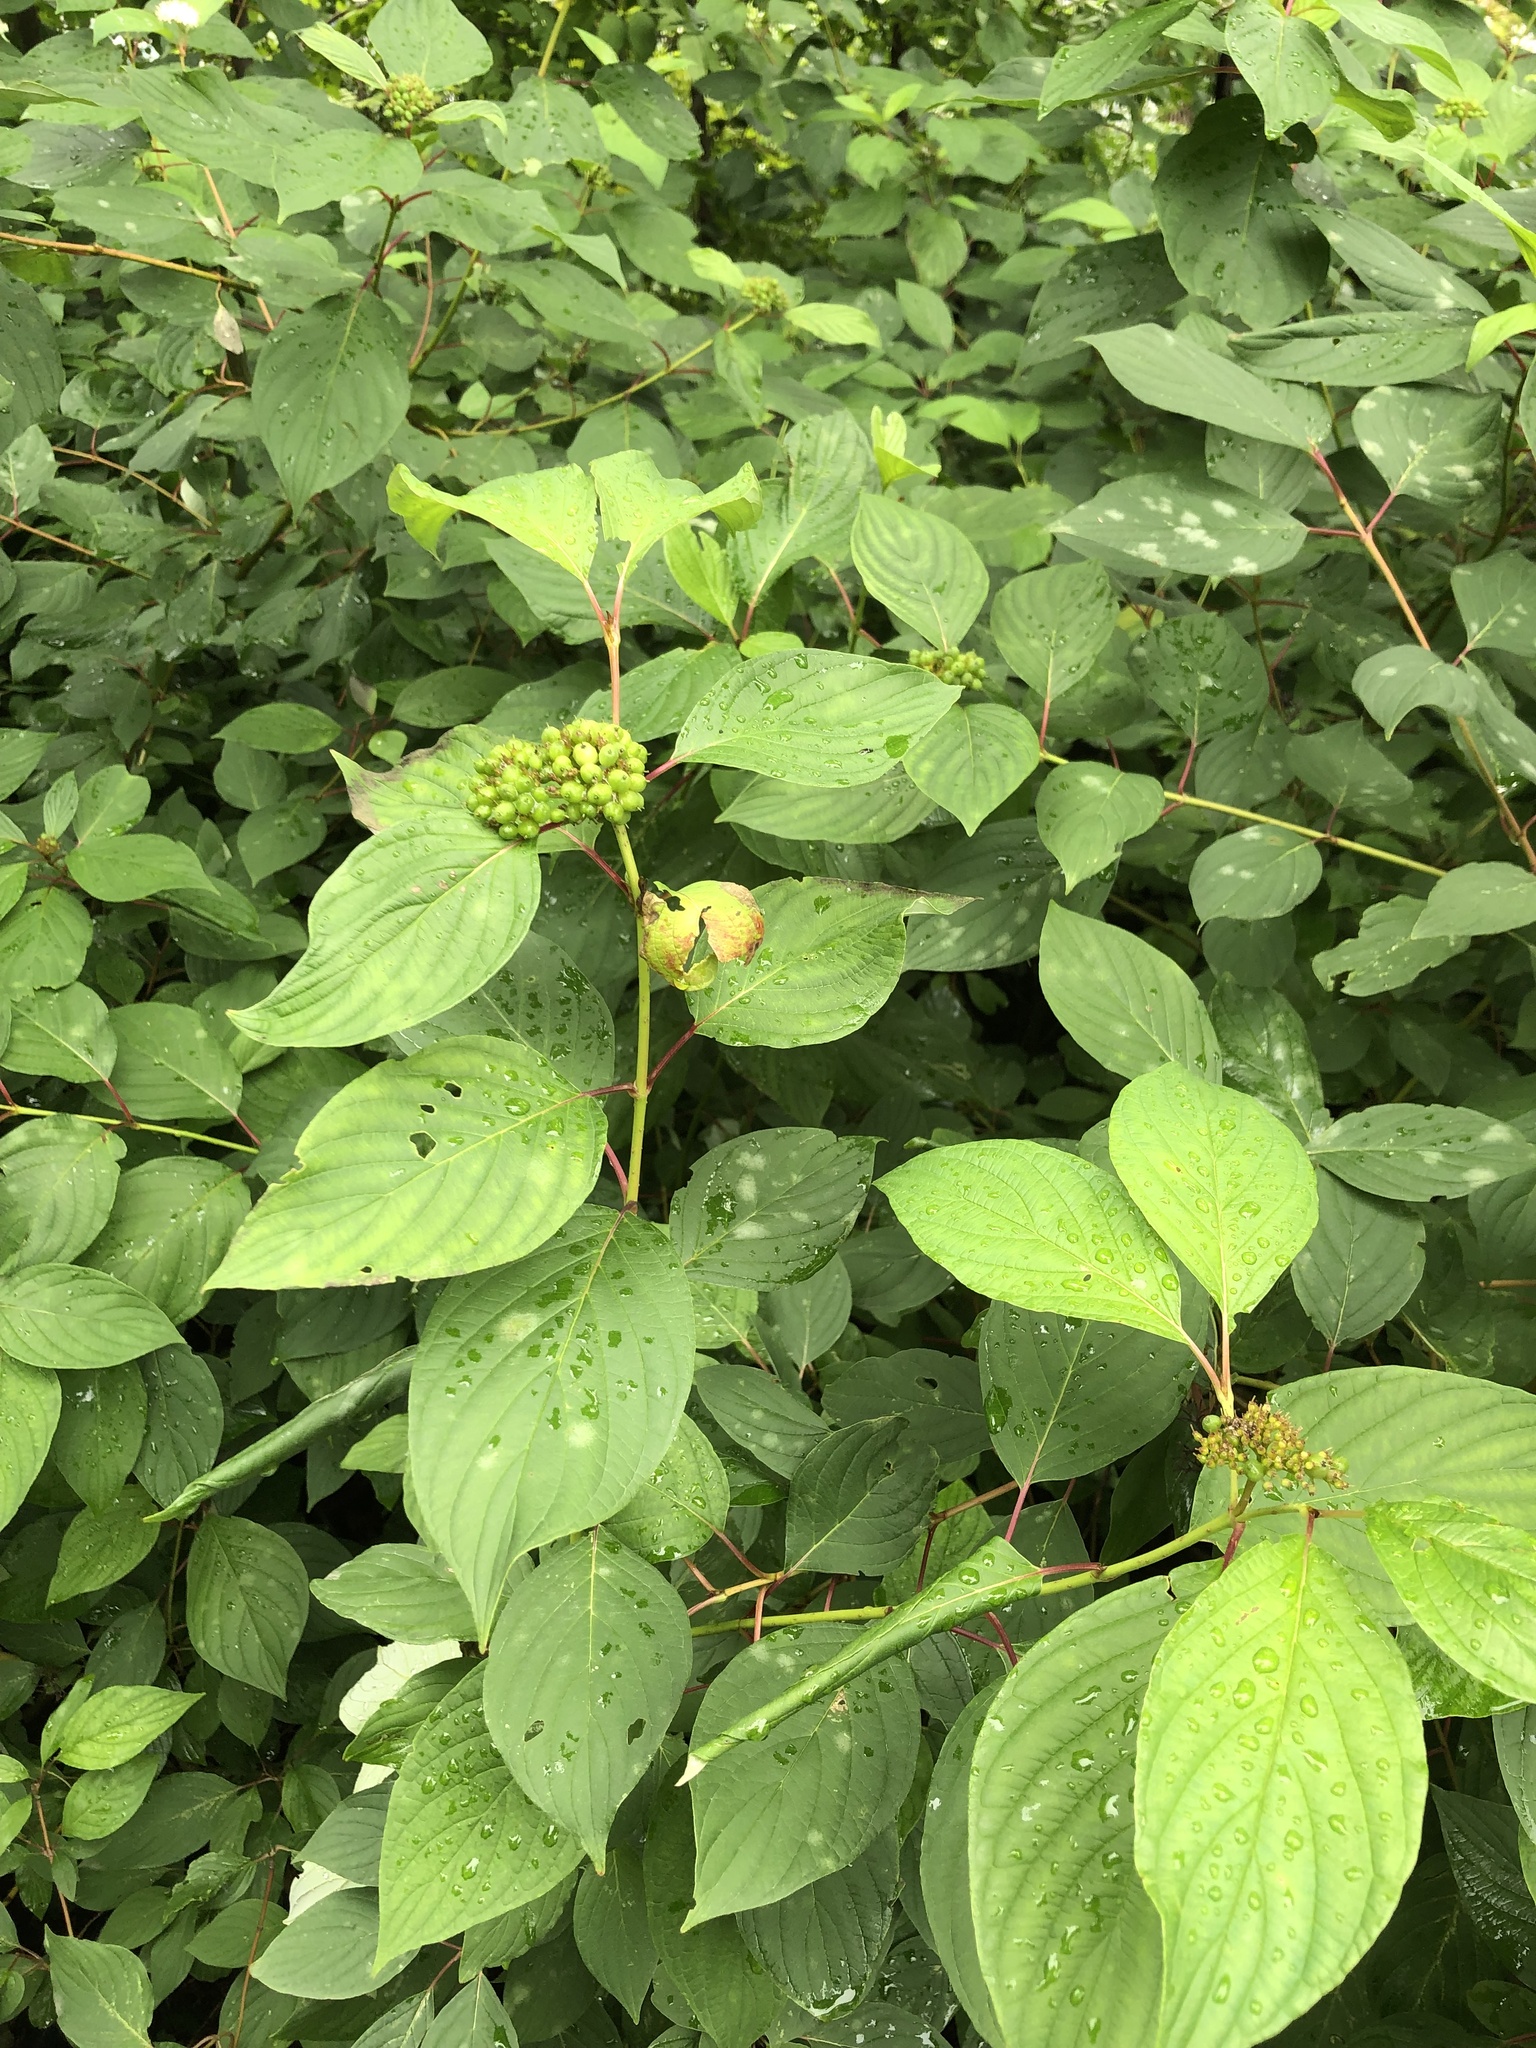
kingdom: Plantae
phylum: Tracheophyta
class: Magnoliopsida
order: Cornales
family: Cornaceae
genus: Cornus
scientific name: Cornus sericea
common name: Red-osier dogwood
